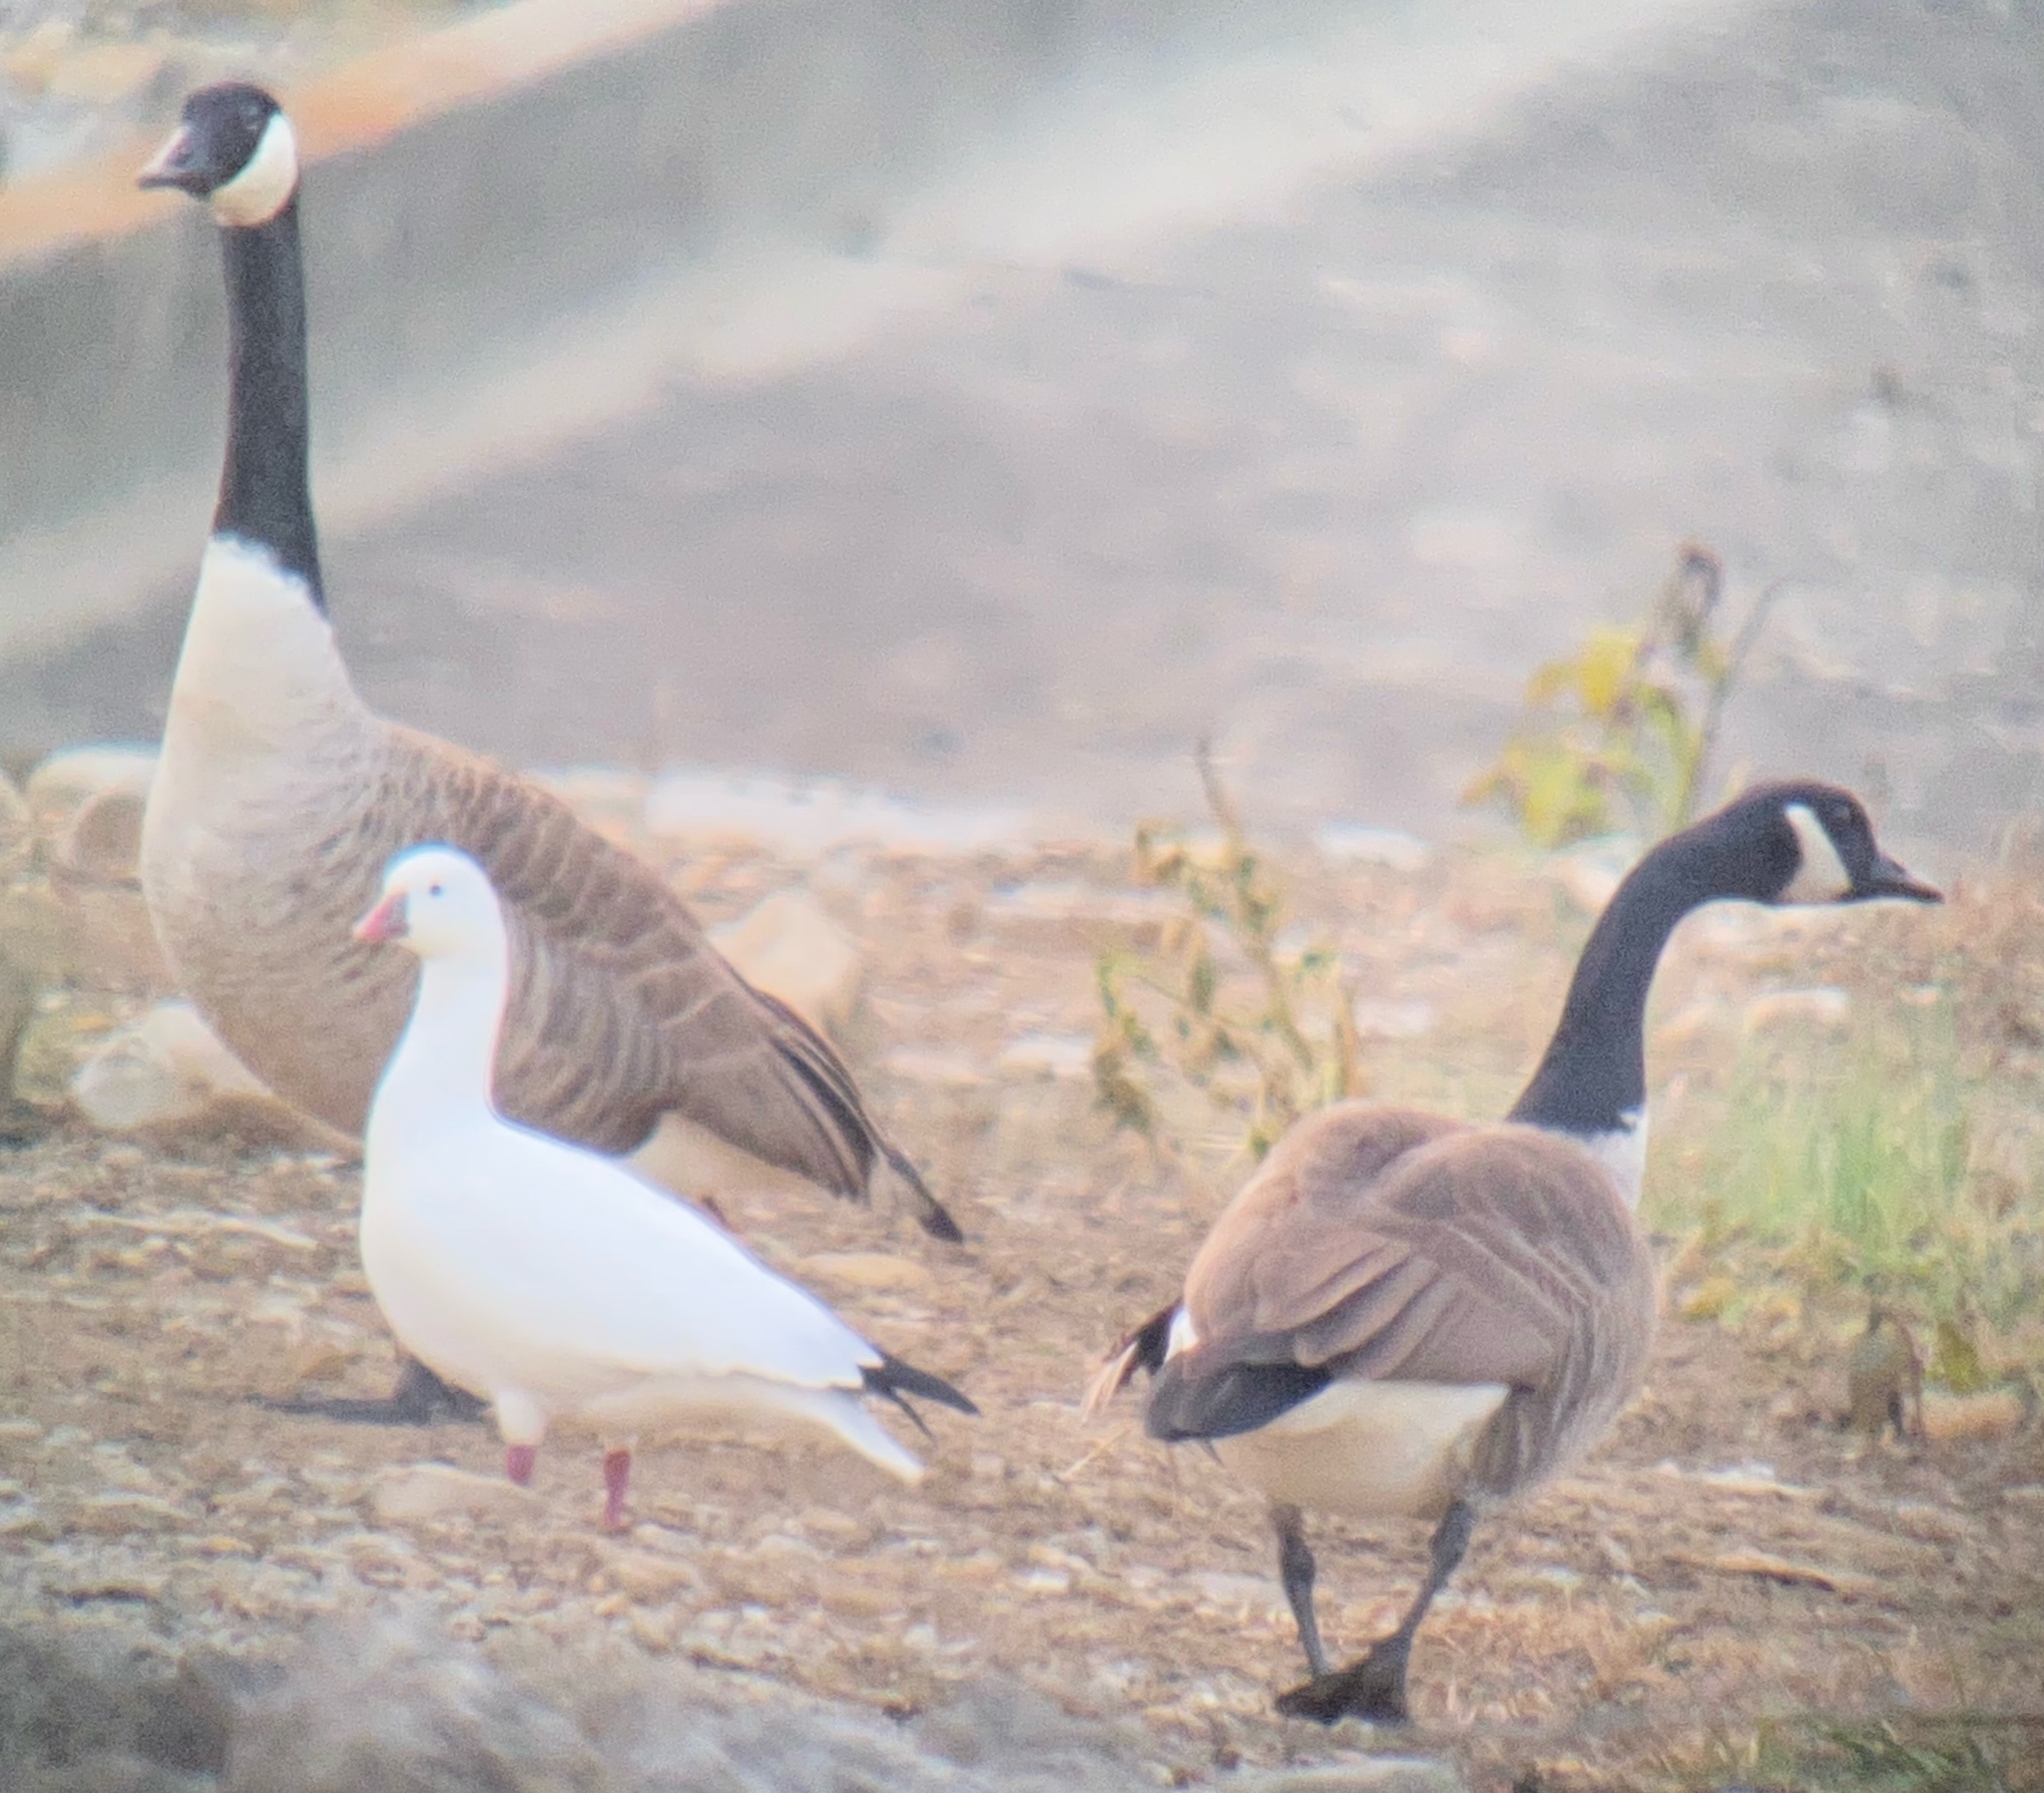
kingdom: Animalia
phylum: Chordata
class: Aves
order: Anseriformes
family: Anatidae
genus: Anser
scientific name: Anser rossii
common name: Ross's goose
